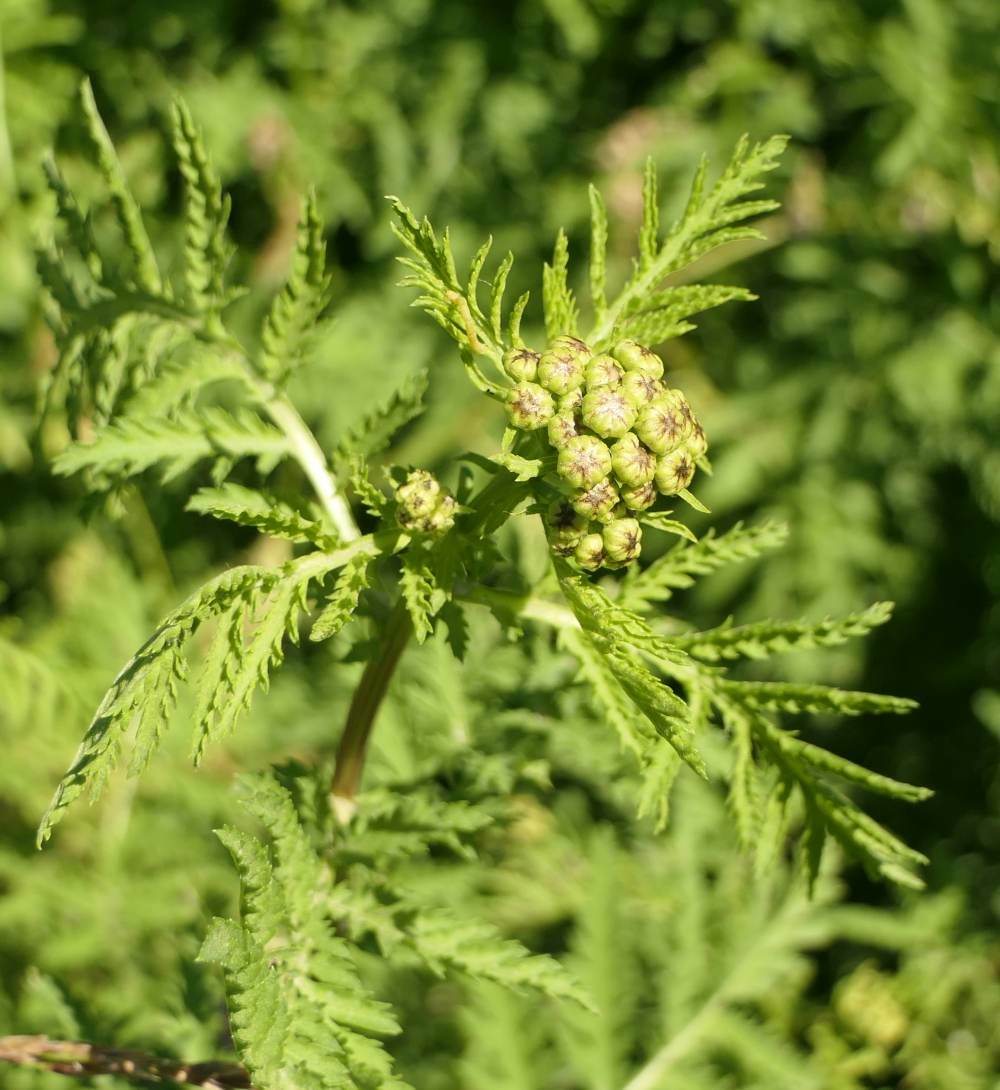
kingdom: Plantae
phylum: Tracheophyta
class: Magnoliopsida
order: Asterales
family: Asteraceae
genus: Tanacetum
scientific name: Tanacetum vulgare
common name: Common tansy
